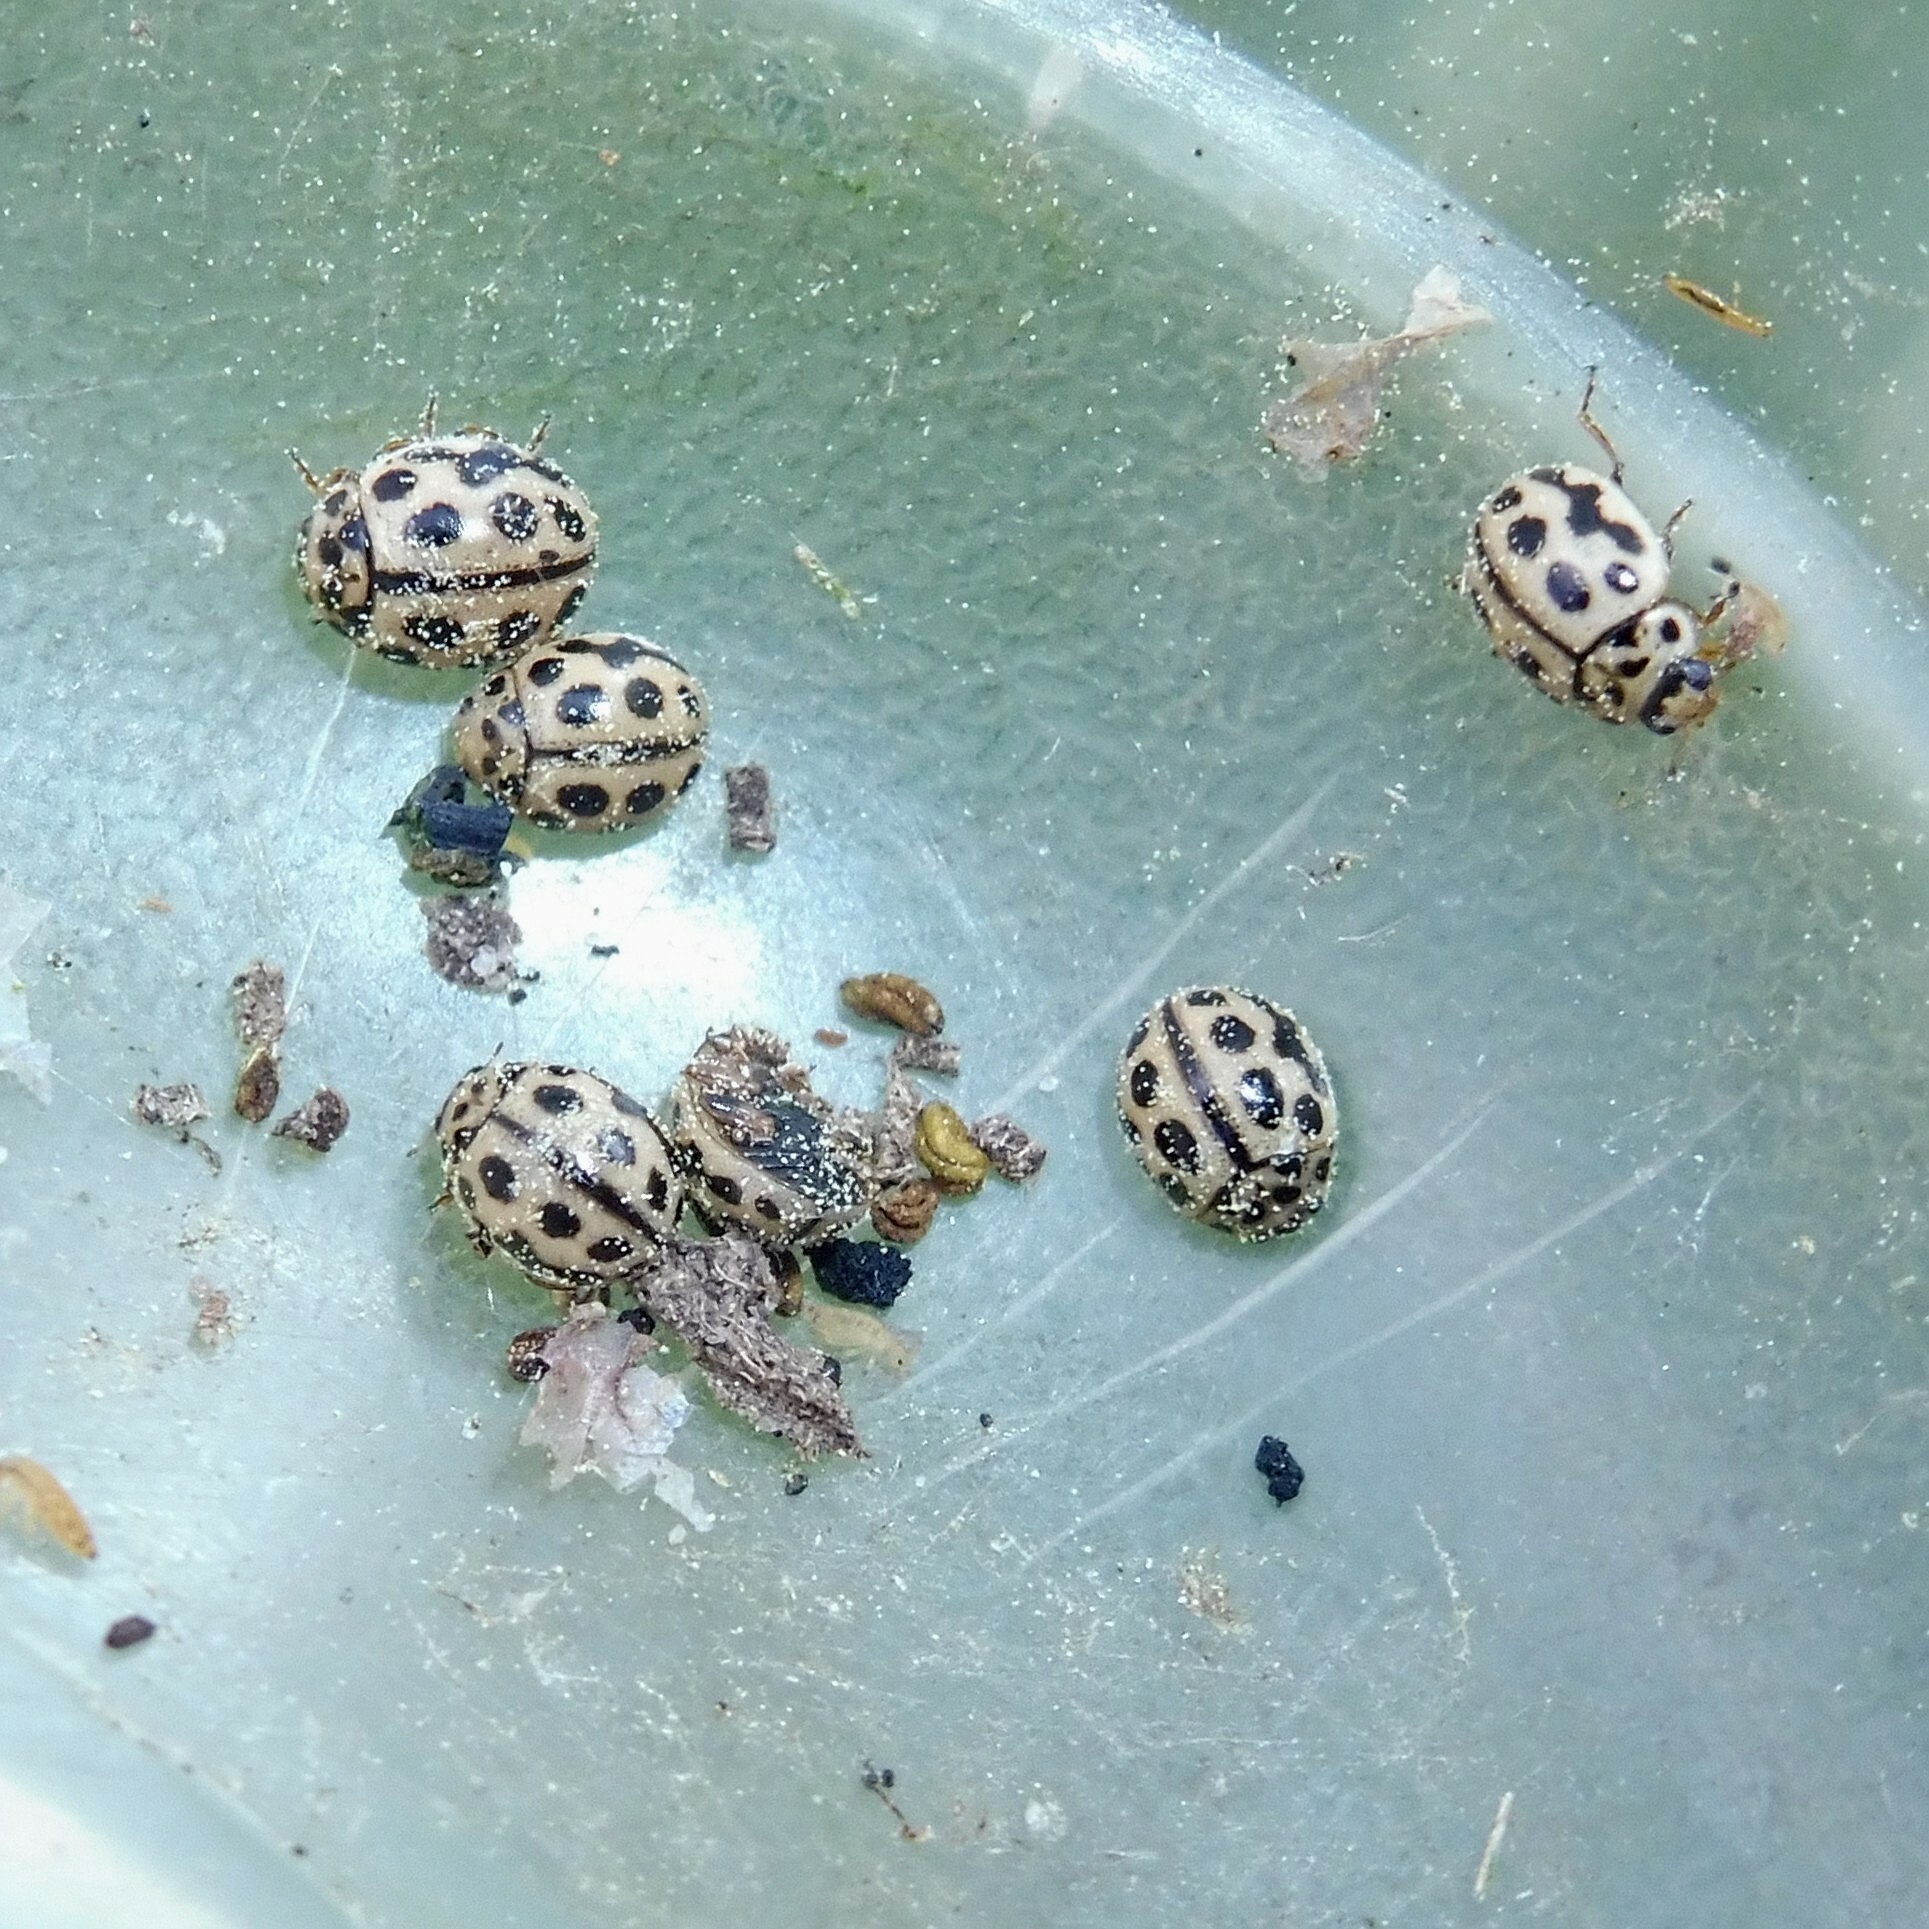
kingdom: Animalia
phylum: Arthropoda
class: Insecta
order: Coleoptera
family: Coccinellidae
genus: Tytthaspis
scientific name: Tytthaspis sedecimpunctata
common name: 16-spot ladybird
